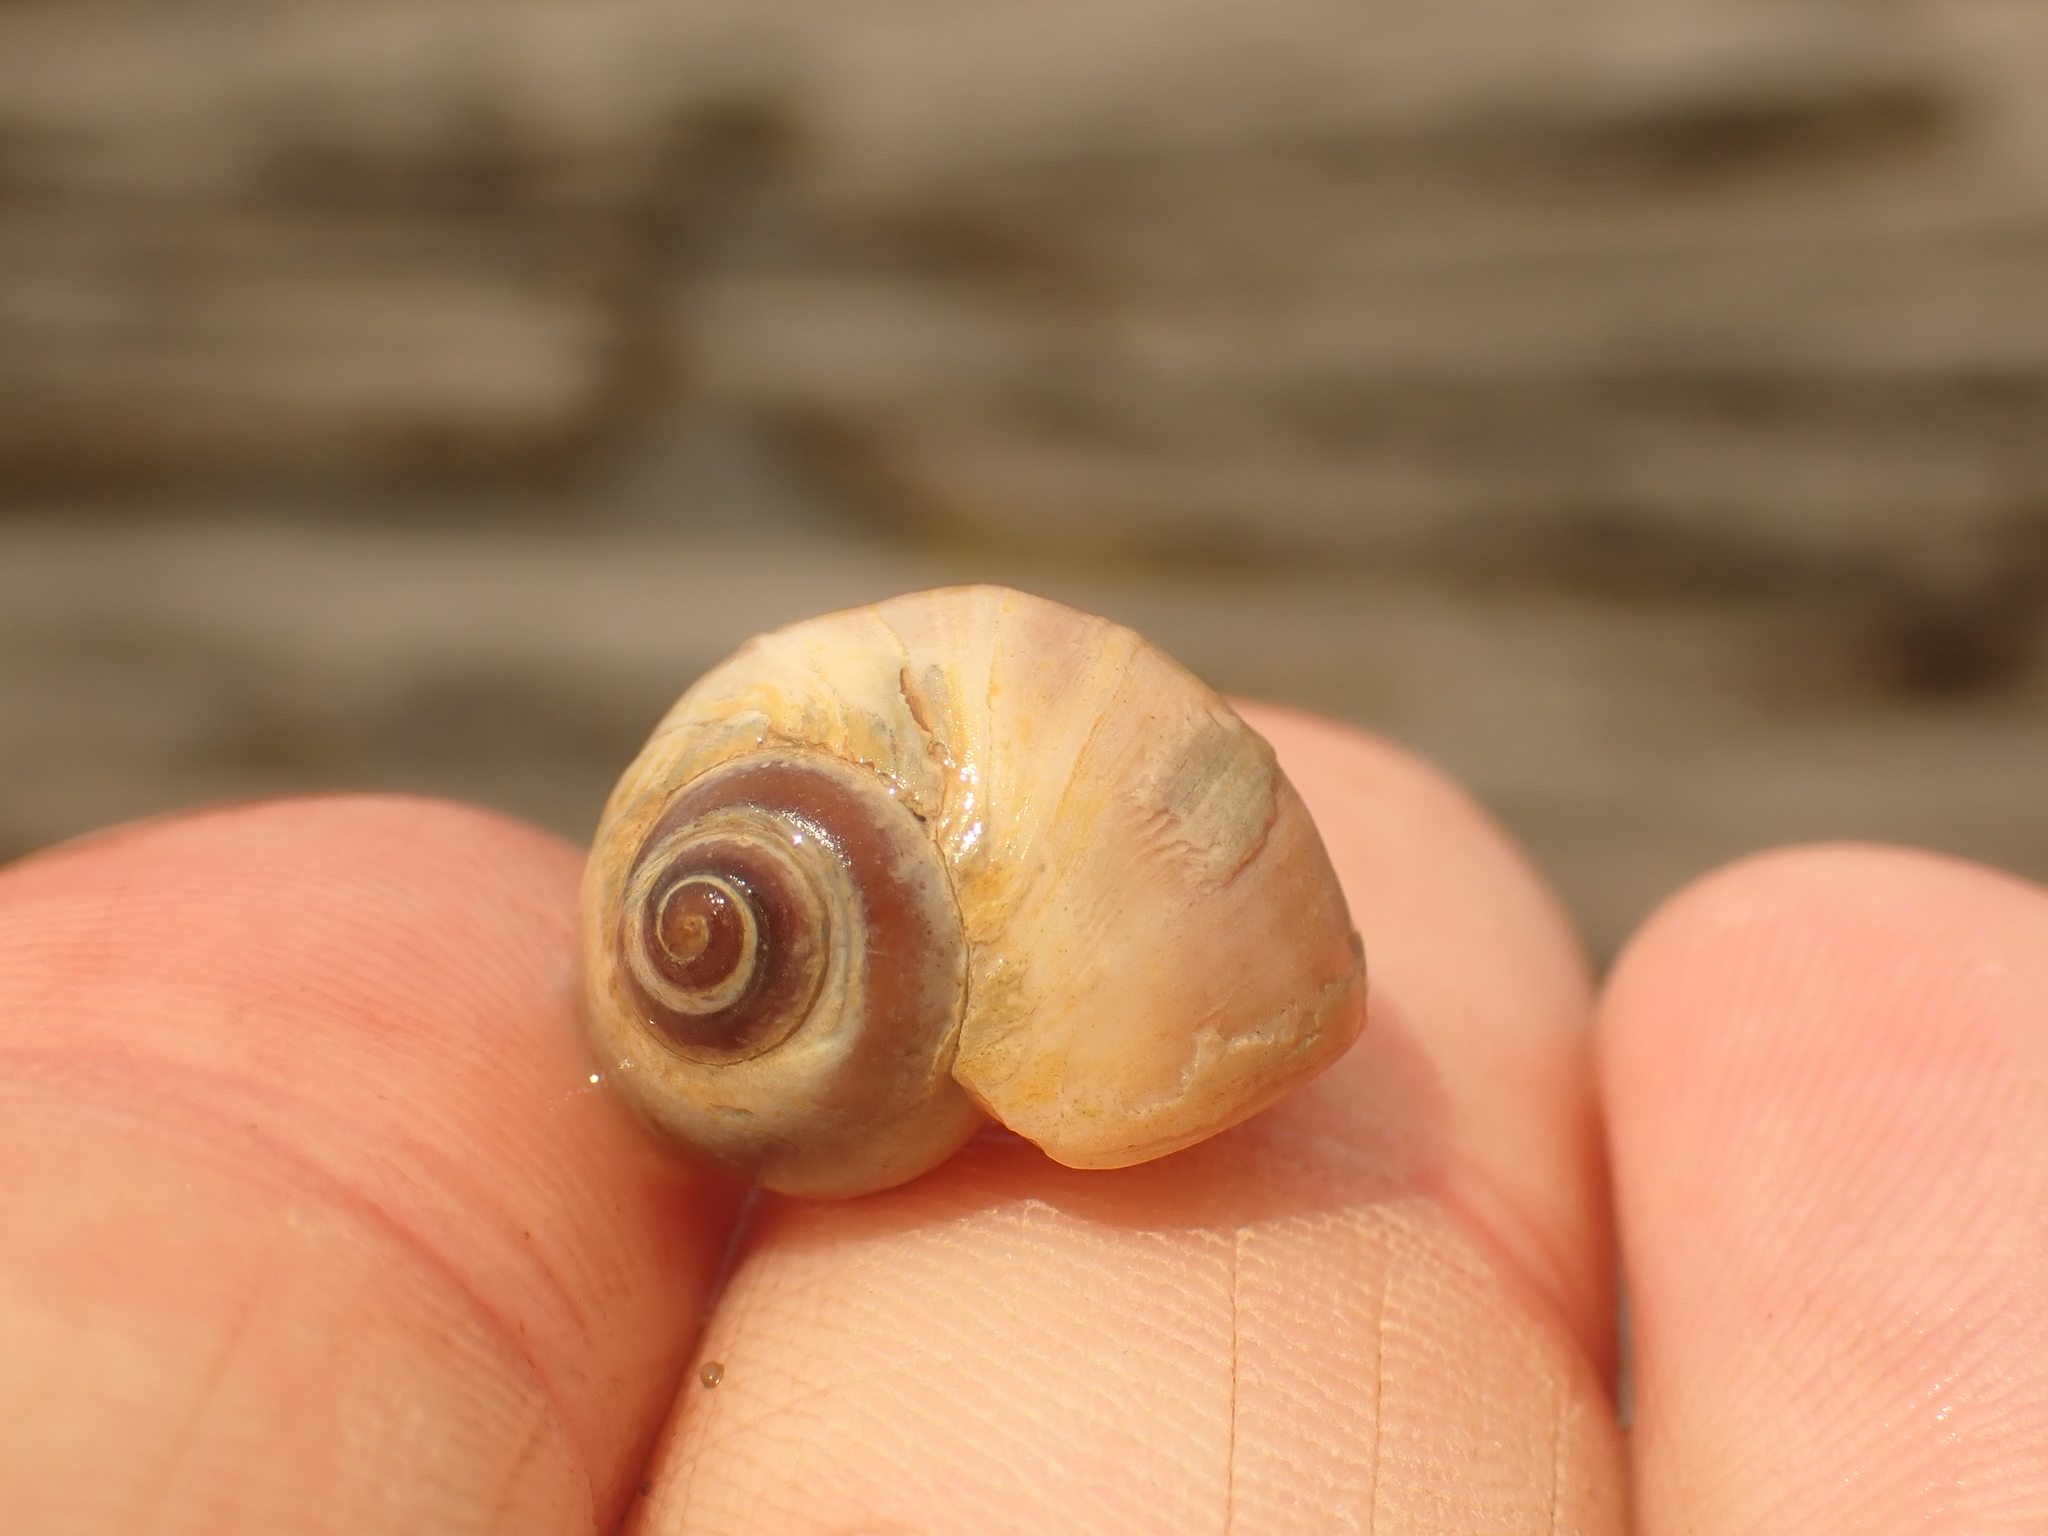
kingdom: Animalia
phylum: Mollusca
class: Gastropoda
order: Littorinimorpha
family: Naticidae
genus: Euspira
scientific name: Euspira heros
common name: Common northern moonsnail
